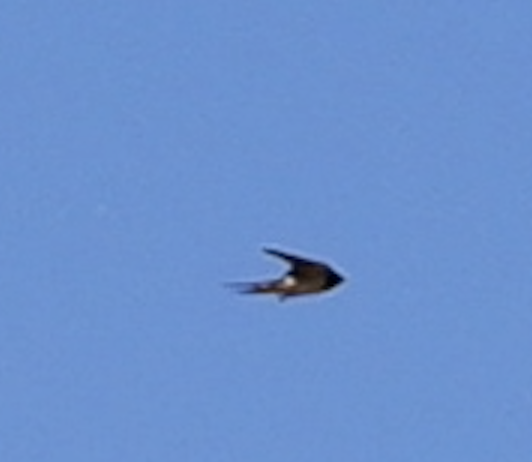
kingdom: Animalia
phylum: Chordata
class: Aves
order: Passeriformes
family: Hirundinidae
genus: Hirundo
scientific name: Hirundo rustica
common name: Barn swallow
